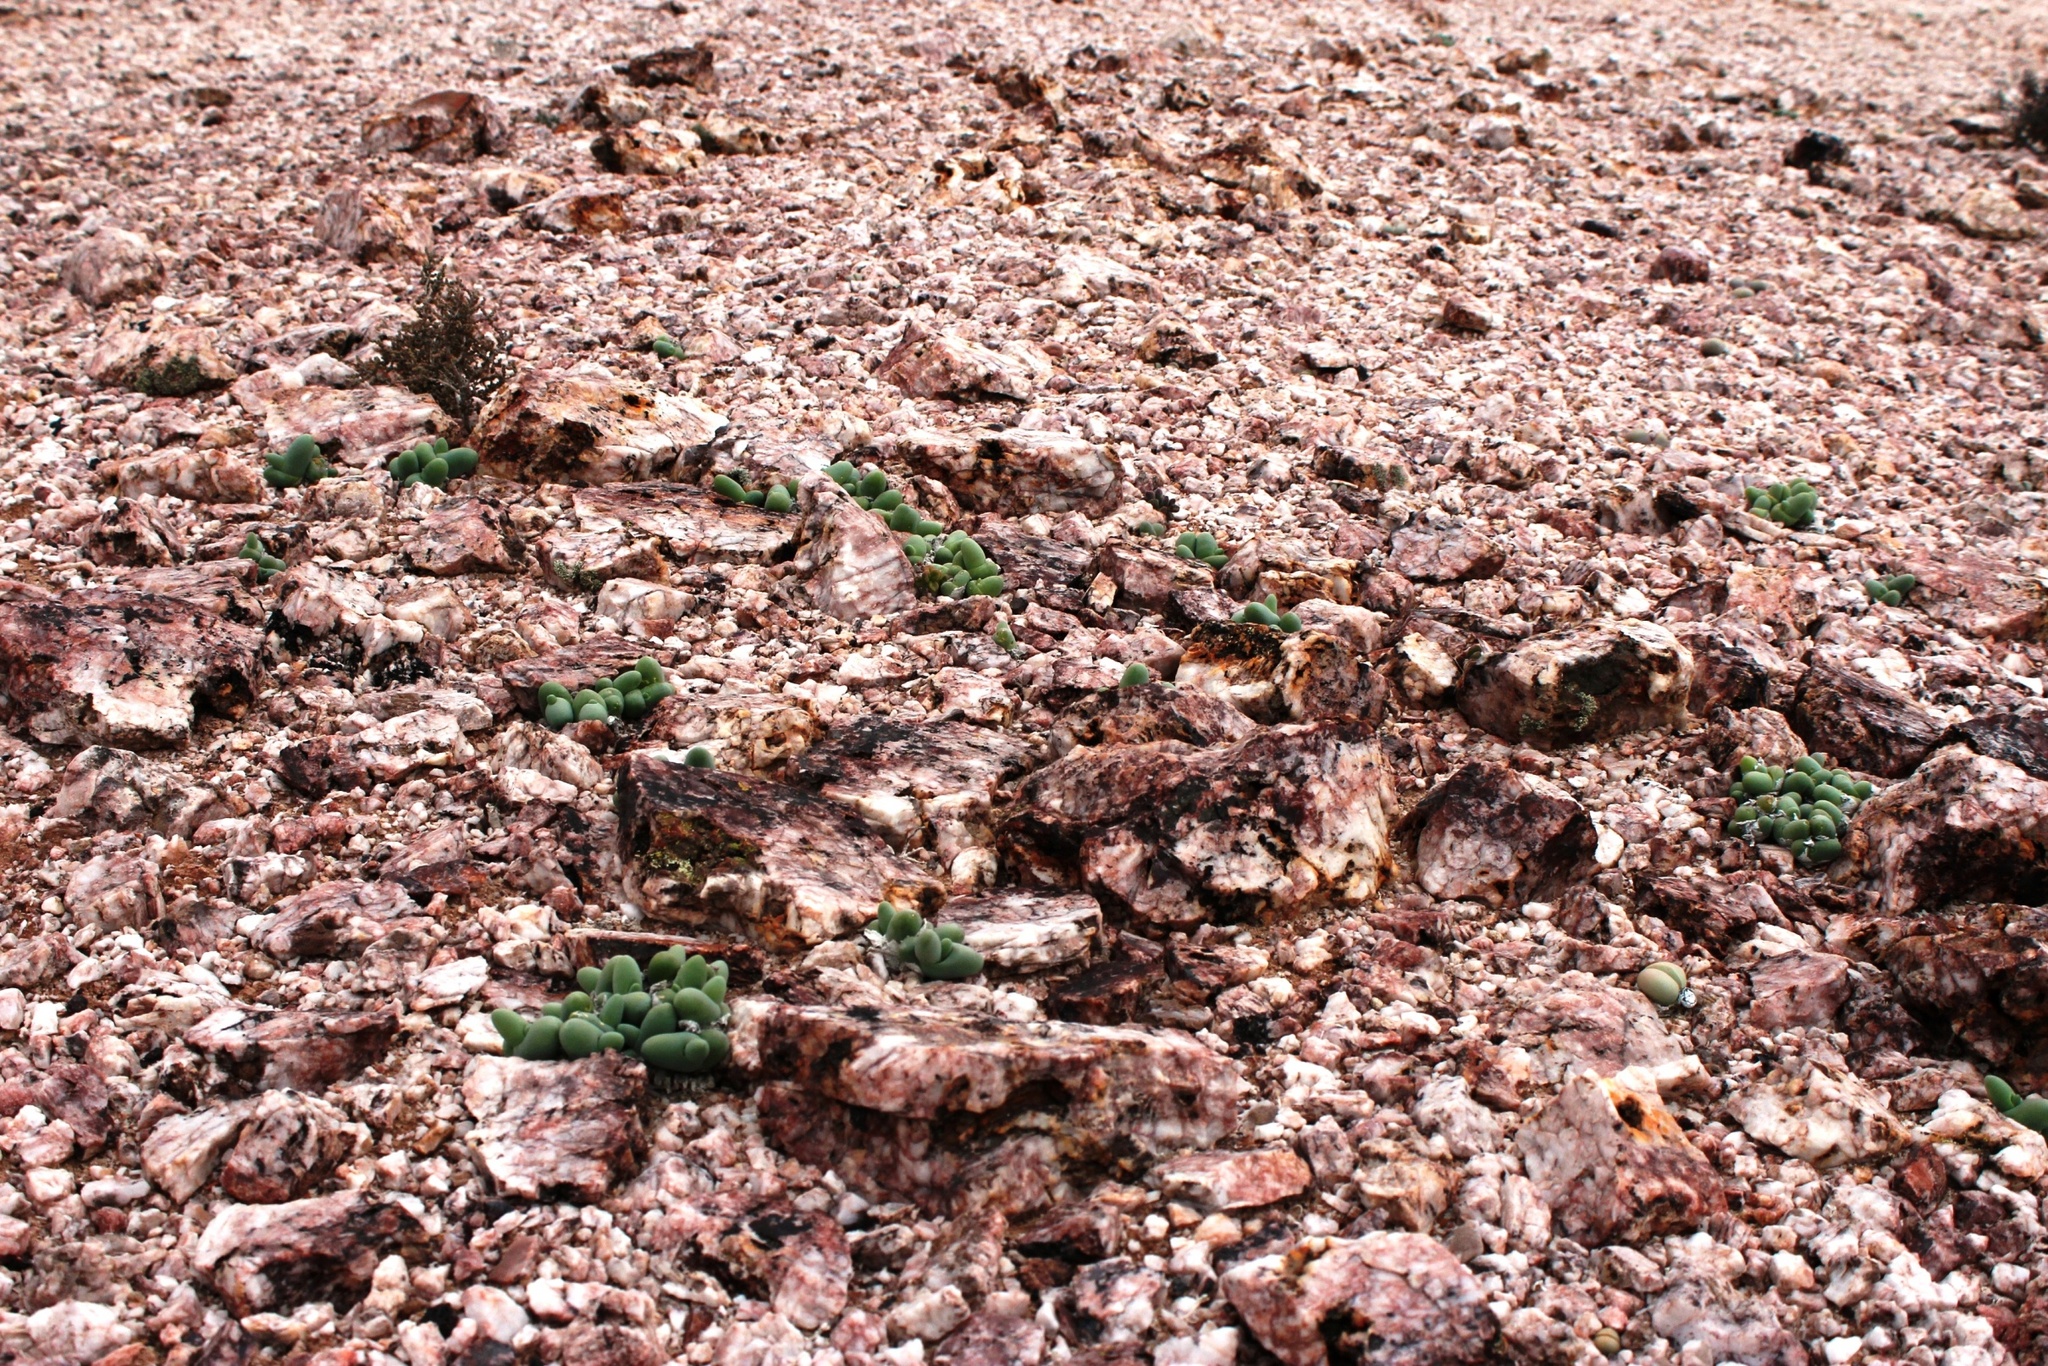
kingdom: Plantae
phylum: Tracheophyta
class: Magnoliopsida
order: Caryophyllales
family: Aizoaceae
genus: Mesembryanthemum
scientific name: Mesembryanthemum digitatum
